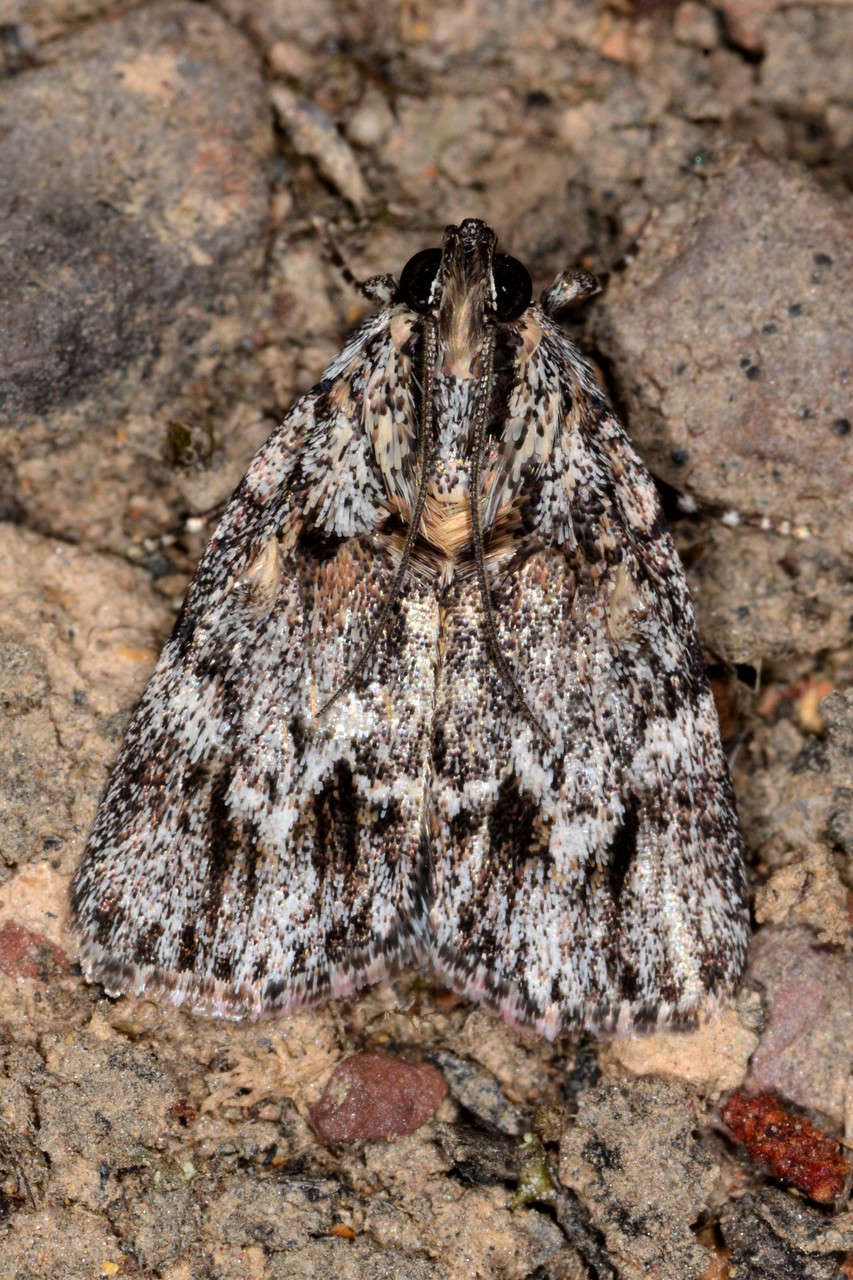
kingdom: Animalia
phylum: Arthropoda
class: Insecta
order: Lepidoptera
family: Pyralidae
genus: Spectrotrota
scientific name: Spectrotrota fimbrialis
